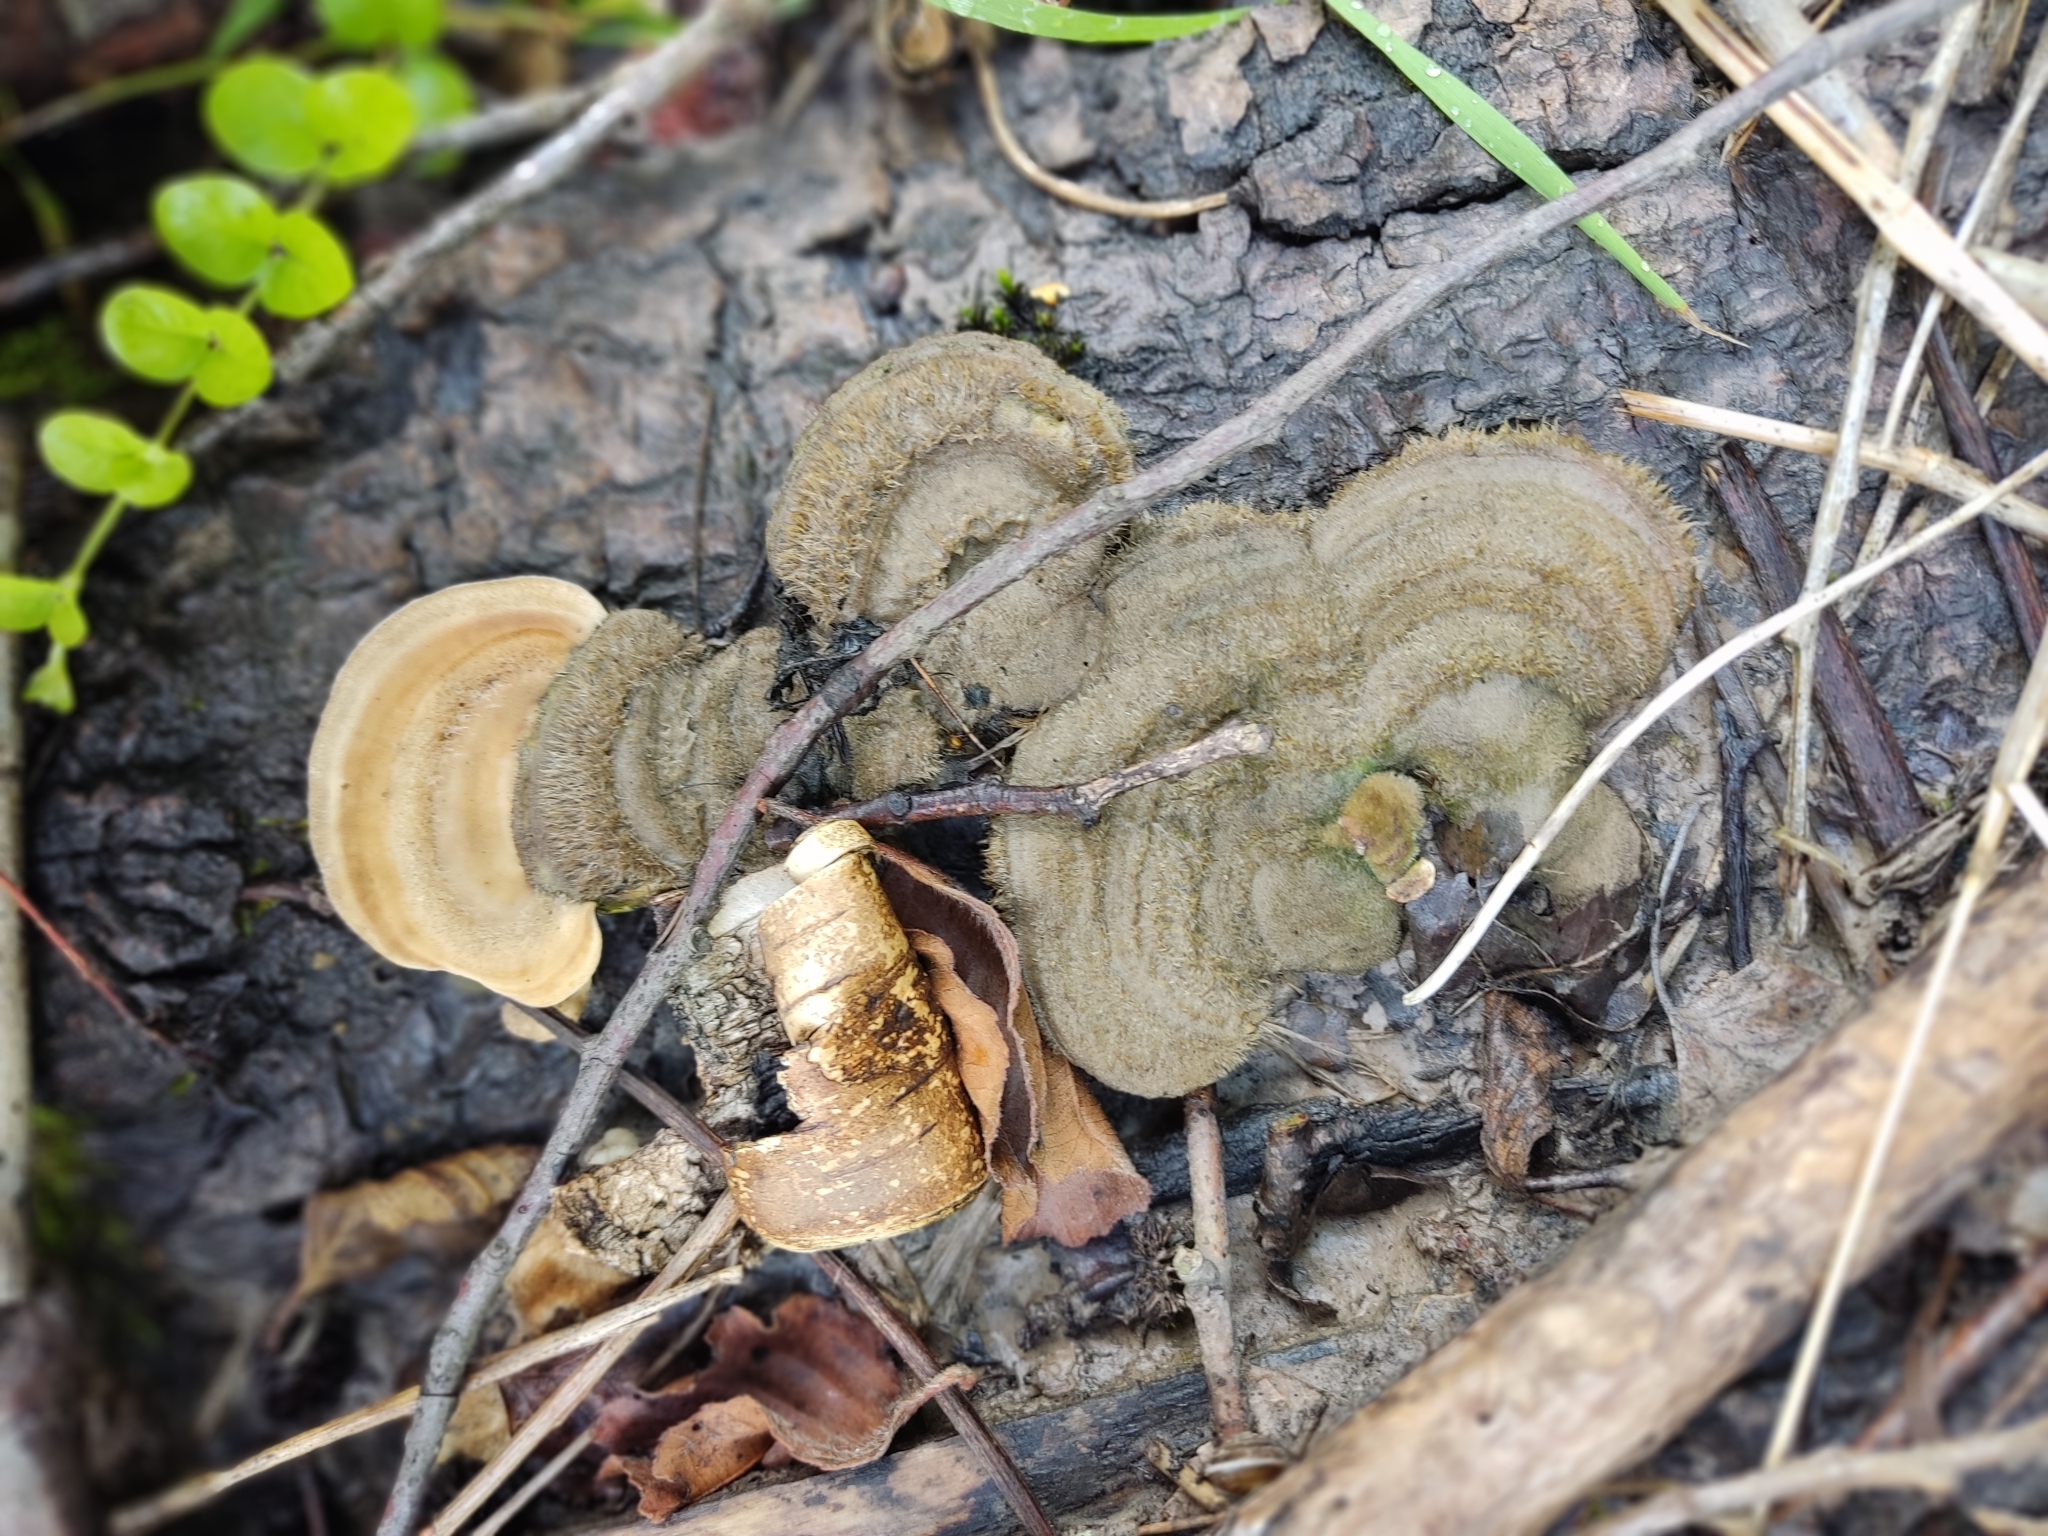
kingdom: Fungi
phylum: Basidiomycota
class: Agaricomycetes
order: Polyporales
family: Polyporaceae
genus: Trametes
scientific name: Trametes hirsuta
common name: Hairy bracket
